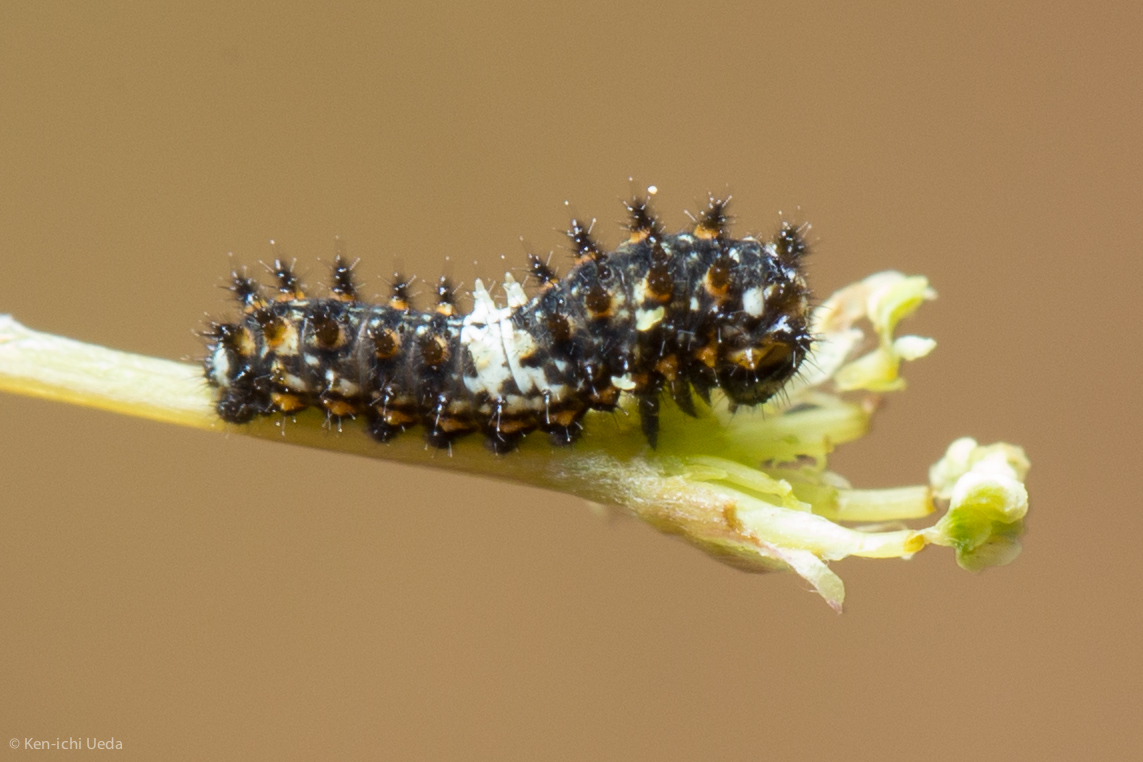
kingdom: Animalia
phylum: Arthropoda
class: Insecta
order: Lepidoptera
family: Papilionidae
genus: Papilio
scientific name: Papilio zelicaon
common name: Anise swallowtail
